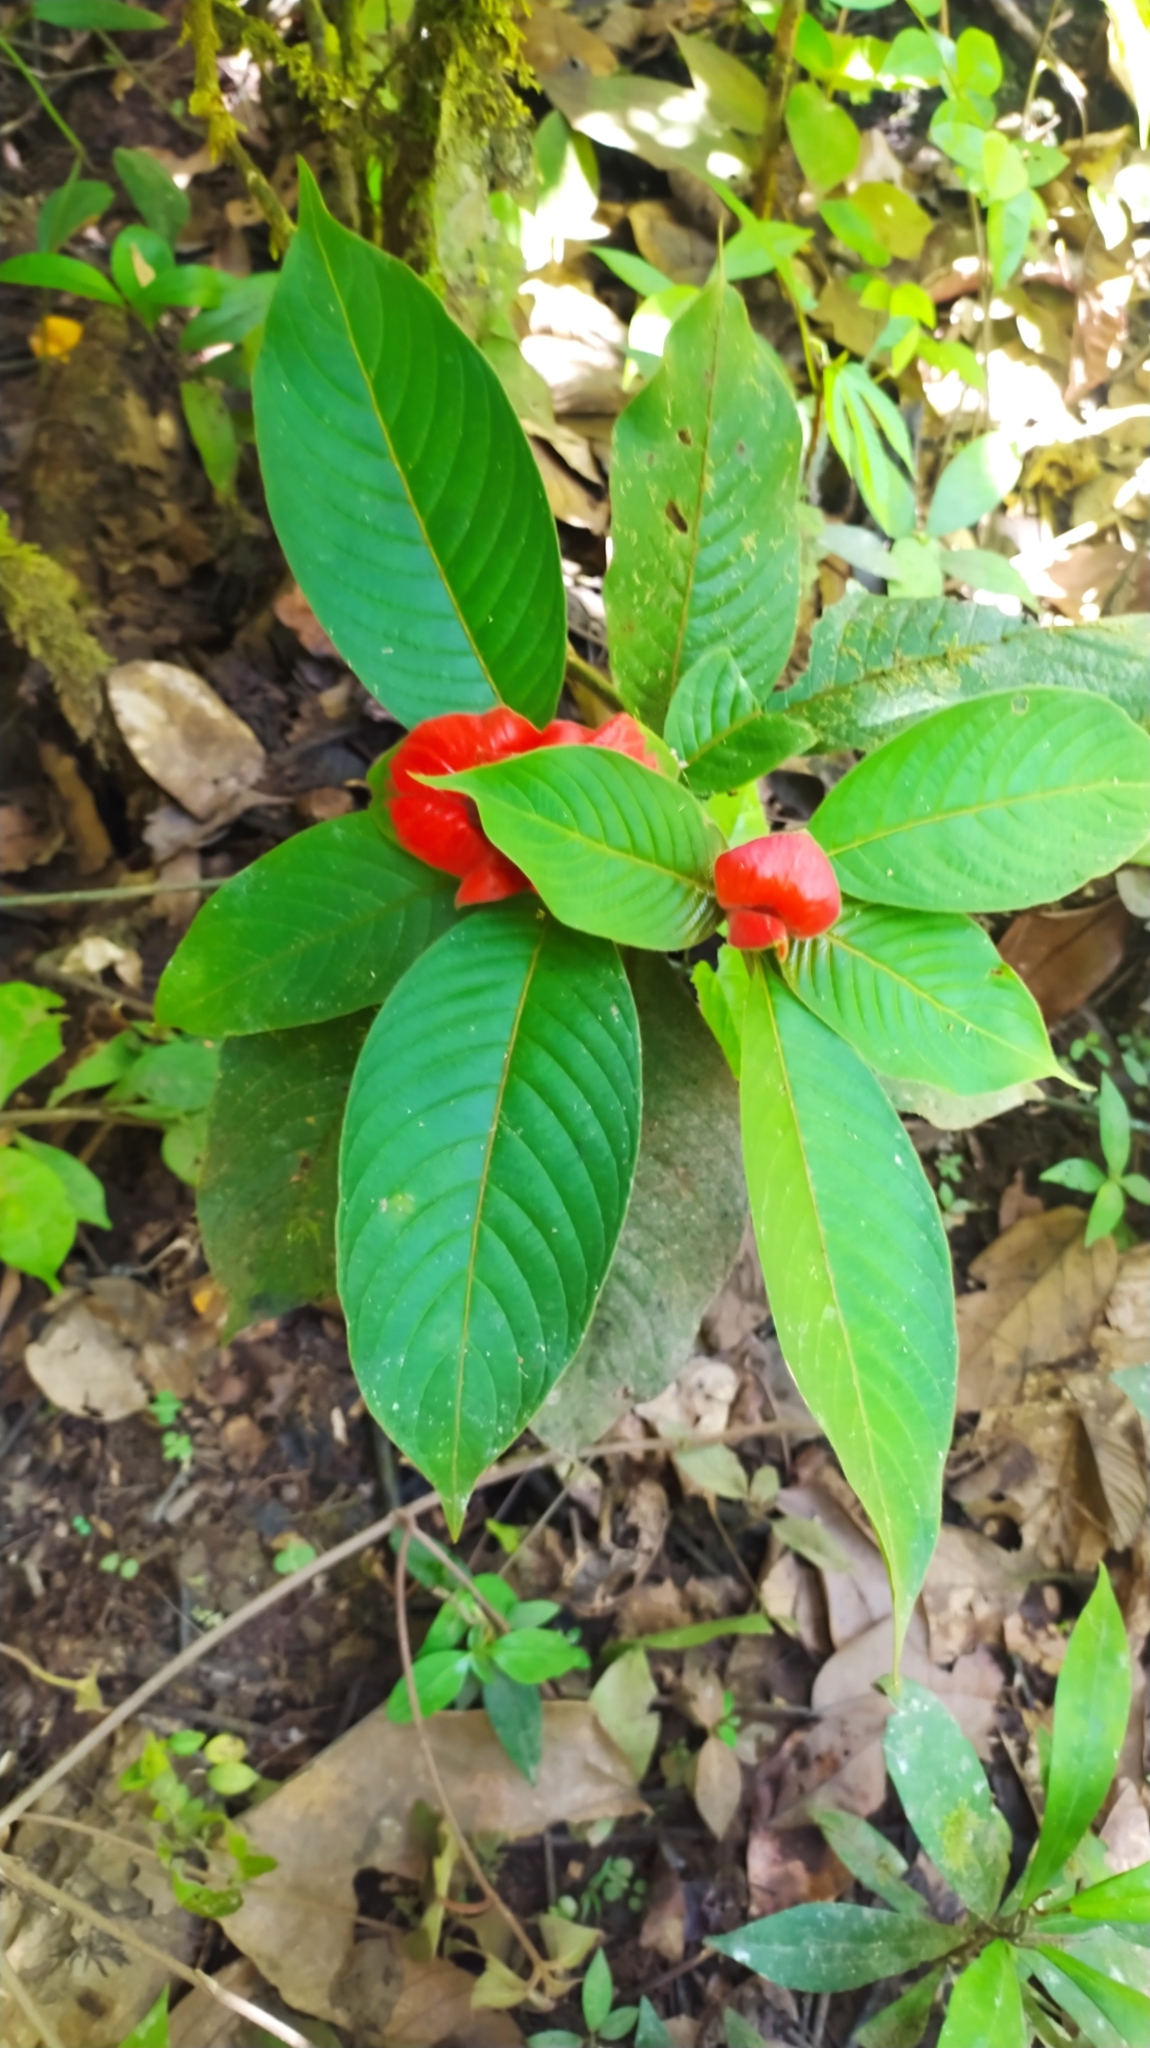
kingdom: Plantae
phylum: Tracheophyta
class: Magnoliopsida
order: Gentianales
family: Rubiaceae
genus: Palicourea
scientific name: Palicourea tomentosa
